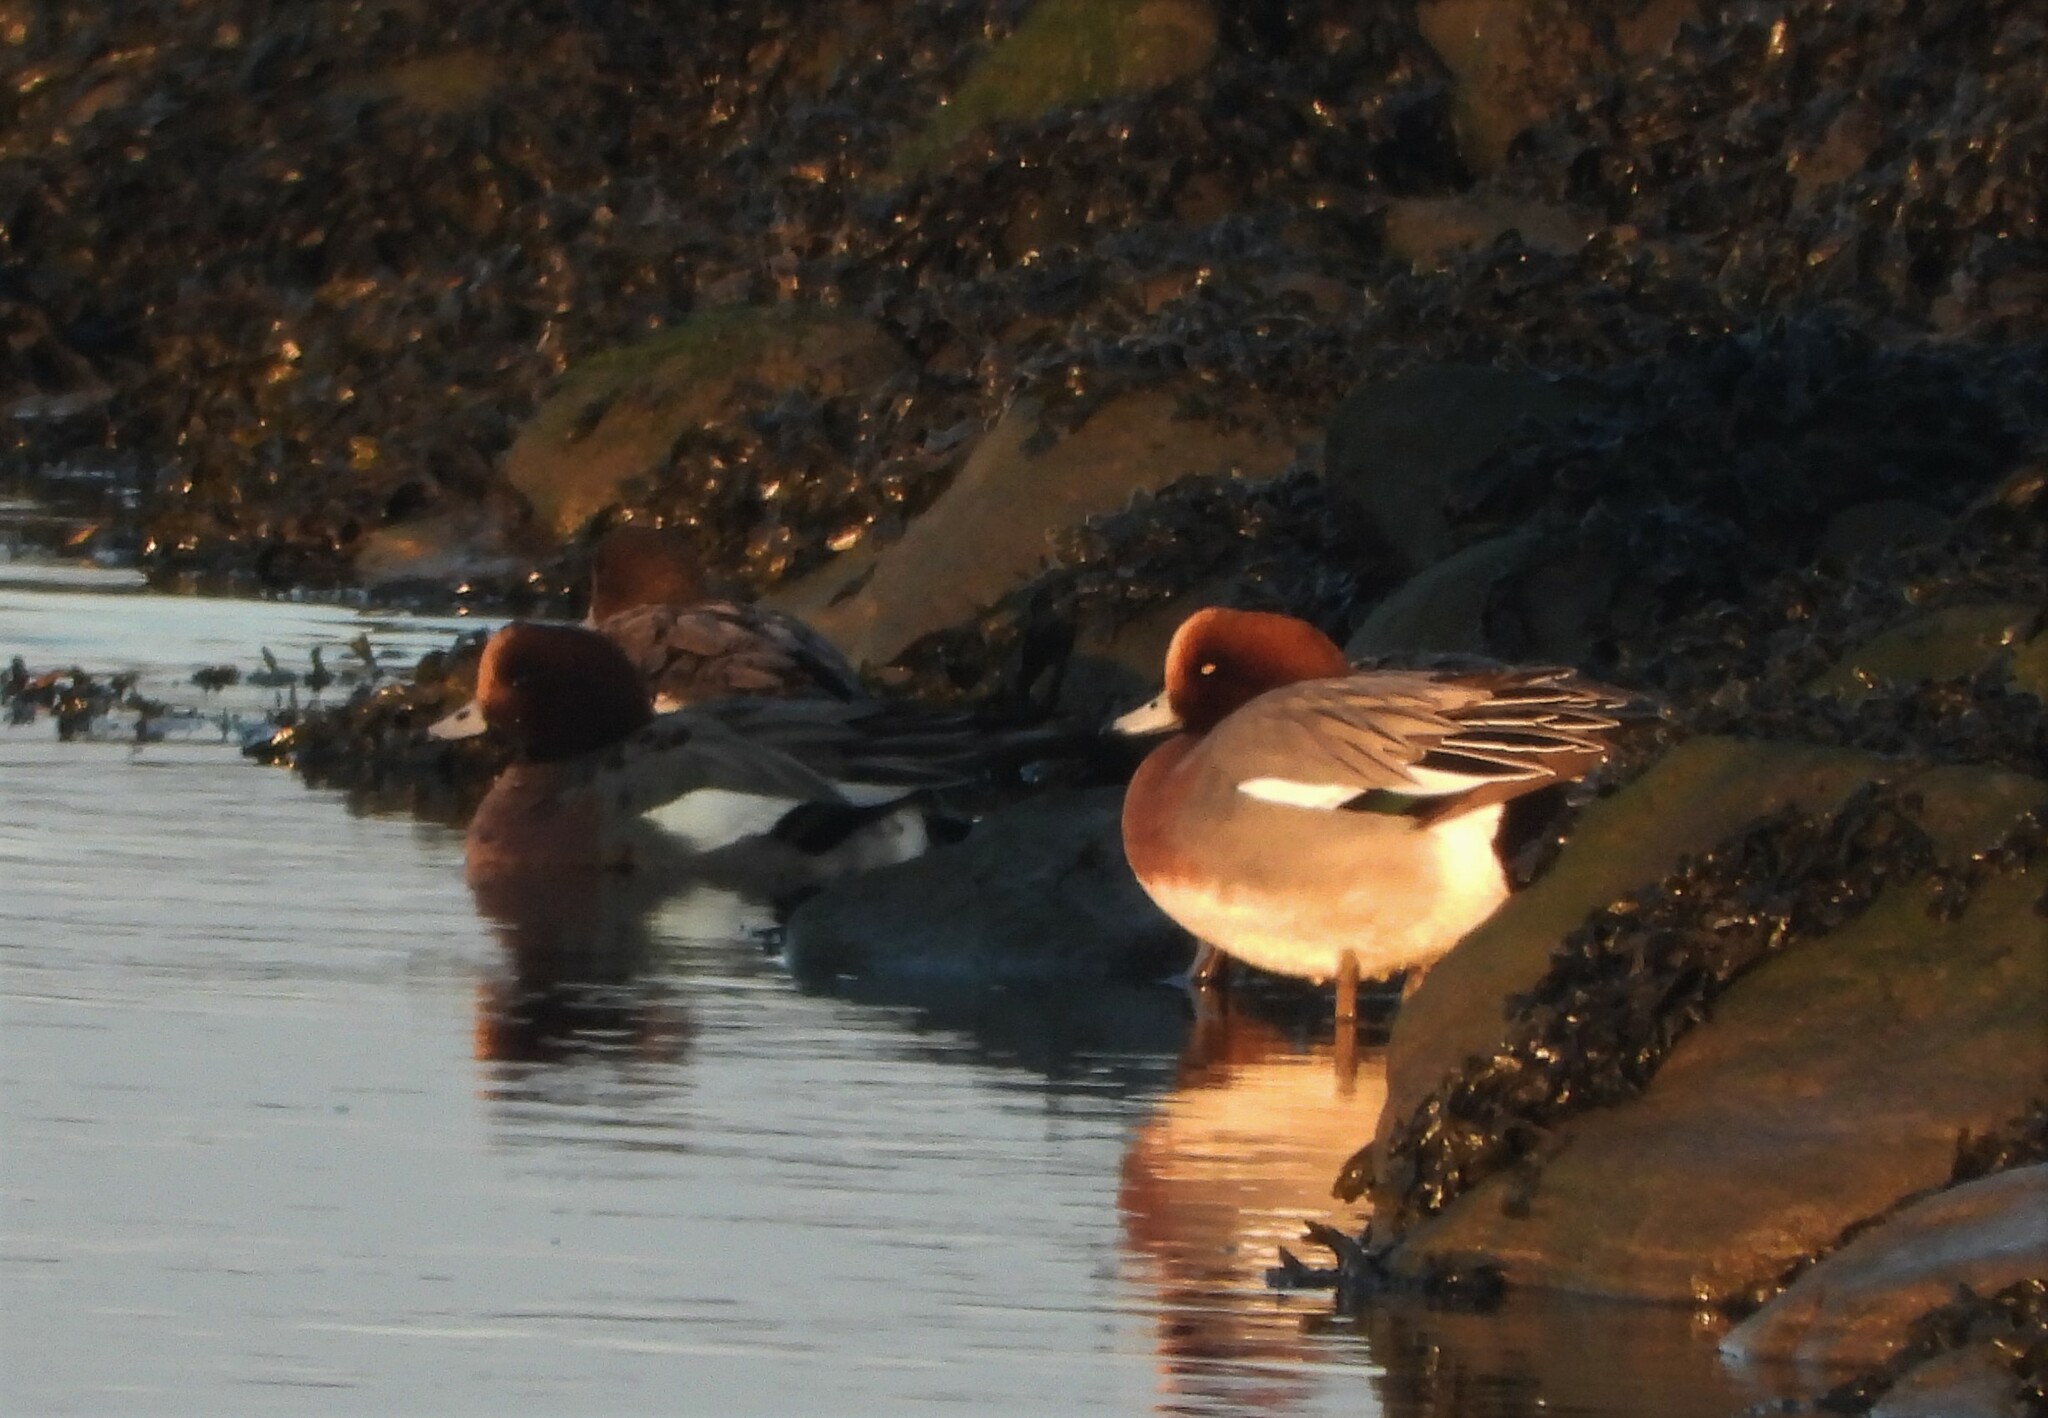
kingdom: Animalia
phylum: Chordata
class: Aves
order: Anseriformes
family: Anatidae
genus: Mareca
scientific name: Mareca penelope
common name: Eurasian wigeon
